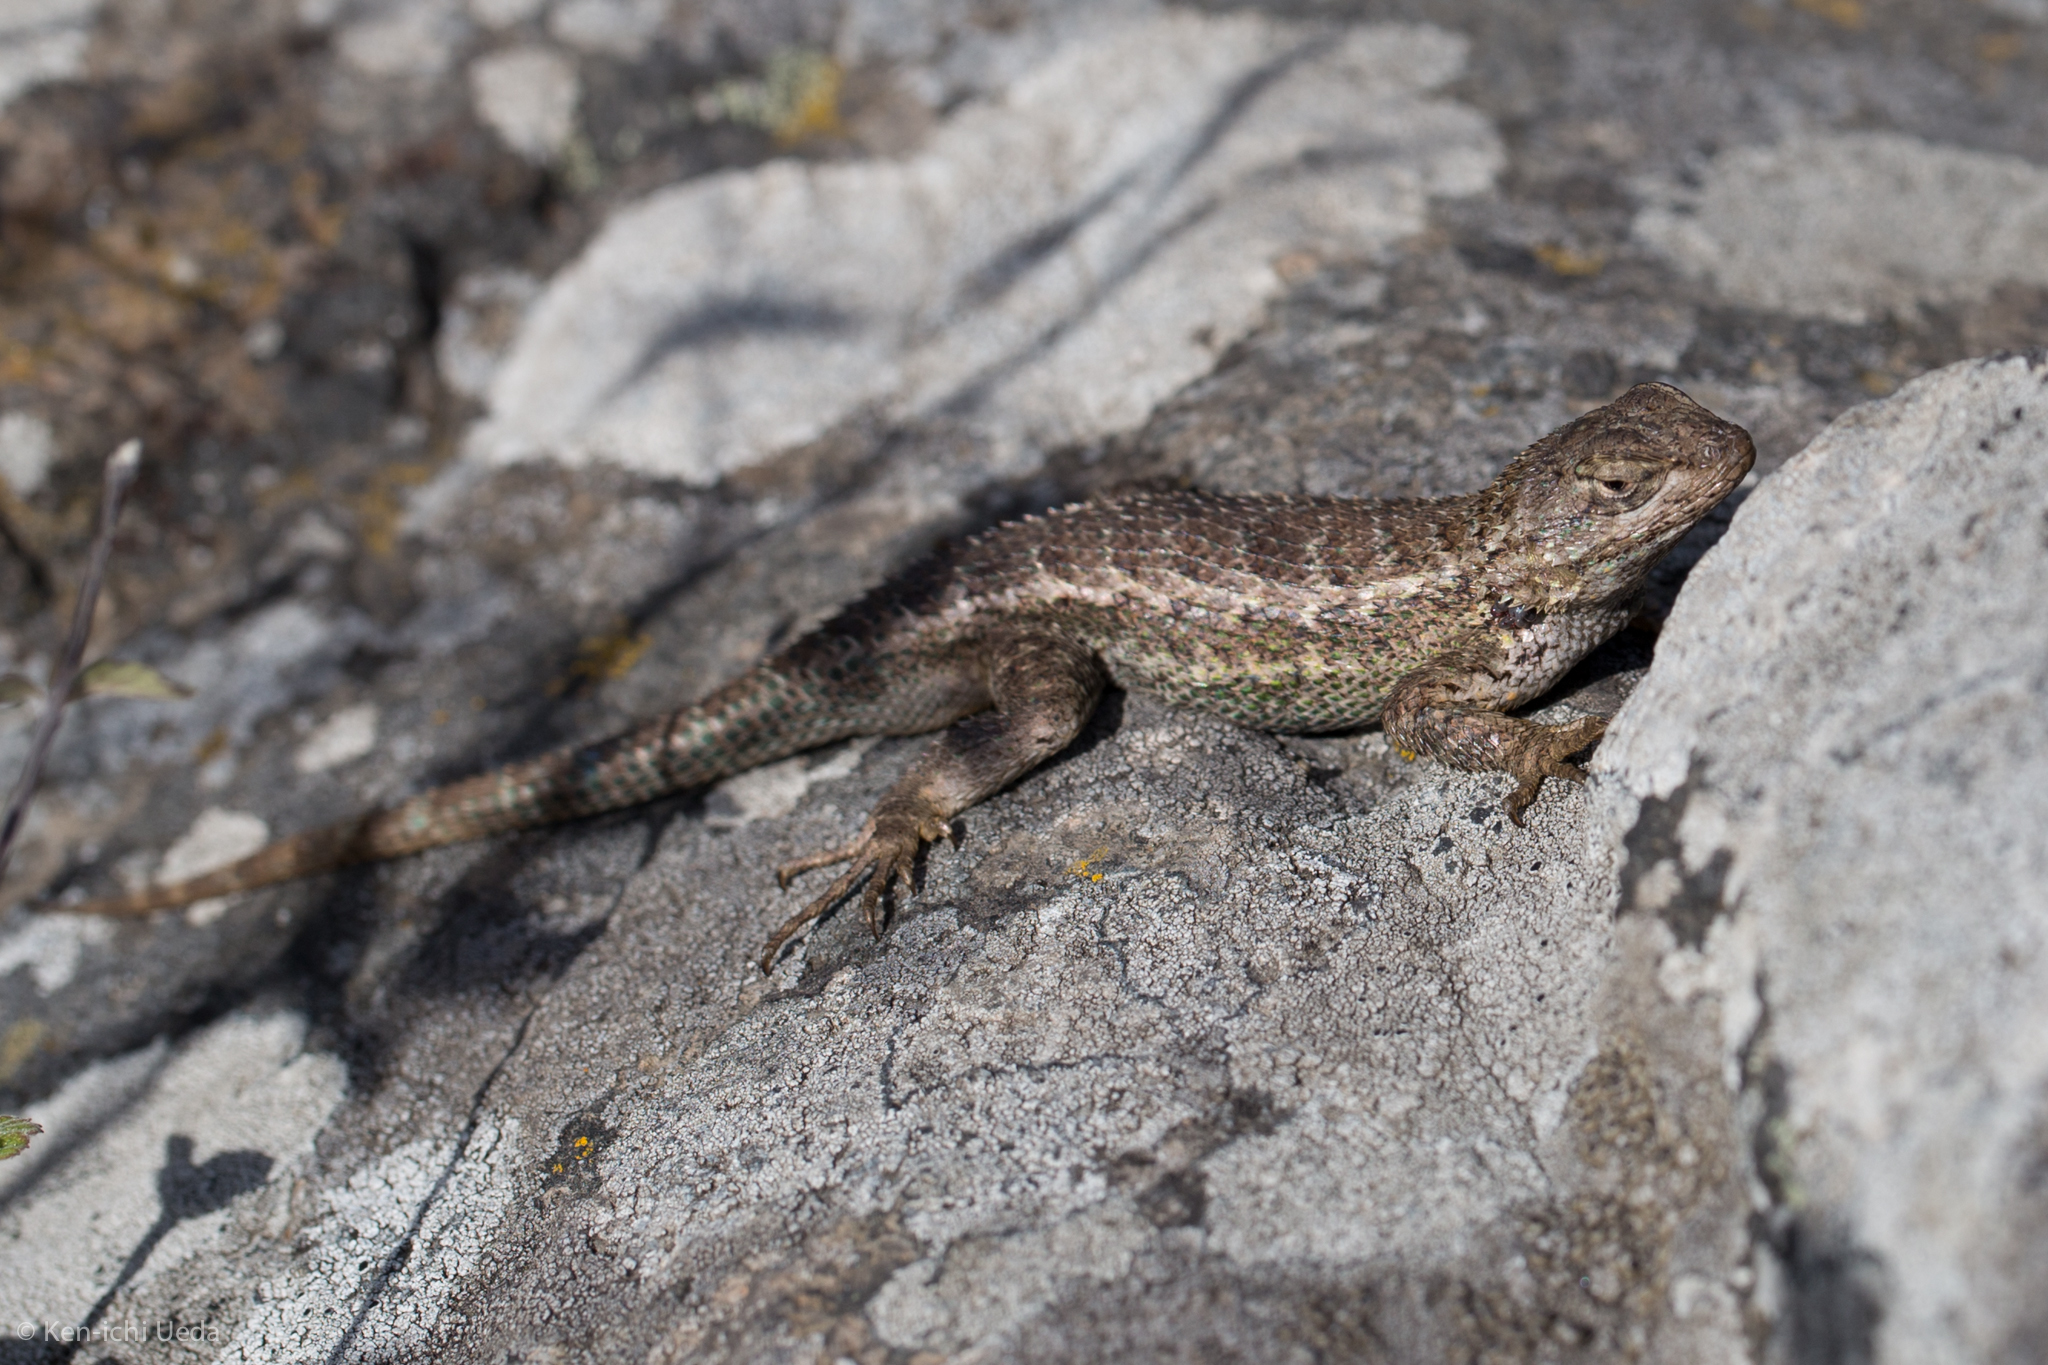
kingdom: Animalia
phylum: Chordata
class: Squamata
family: Phrynosomatidae
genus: Sceloporus
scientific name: Sceloporus occidentalis
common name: Western fence lizard
